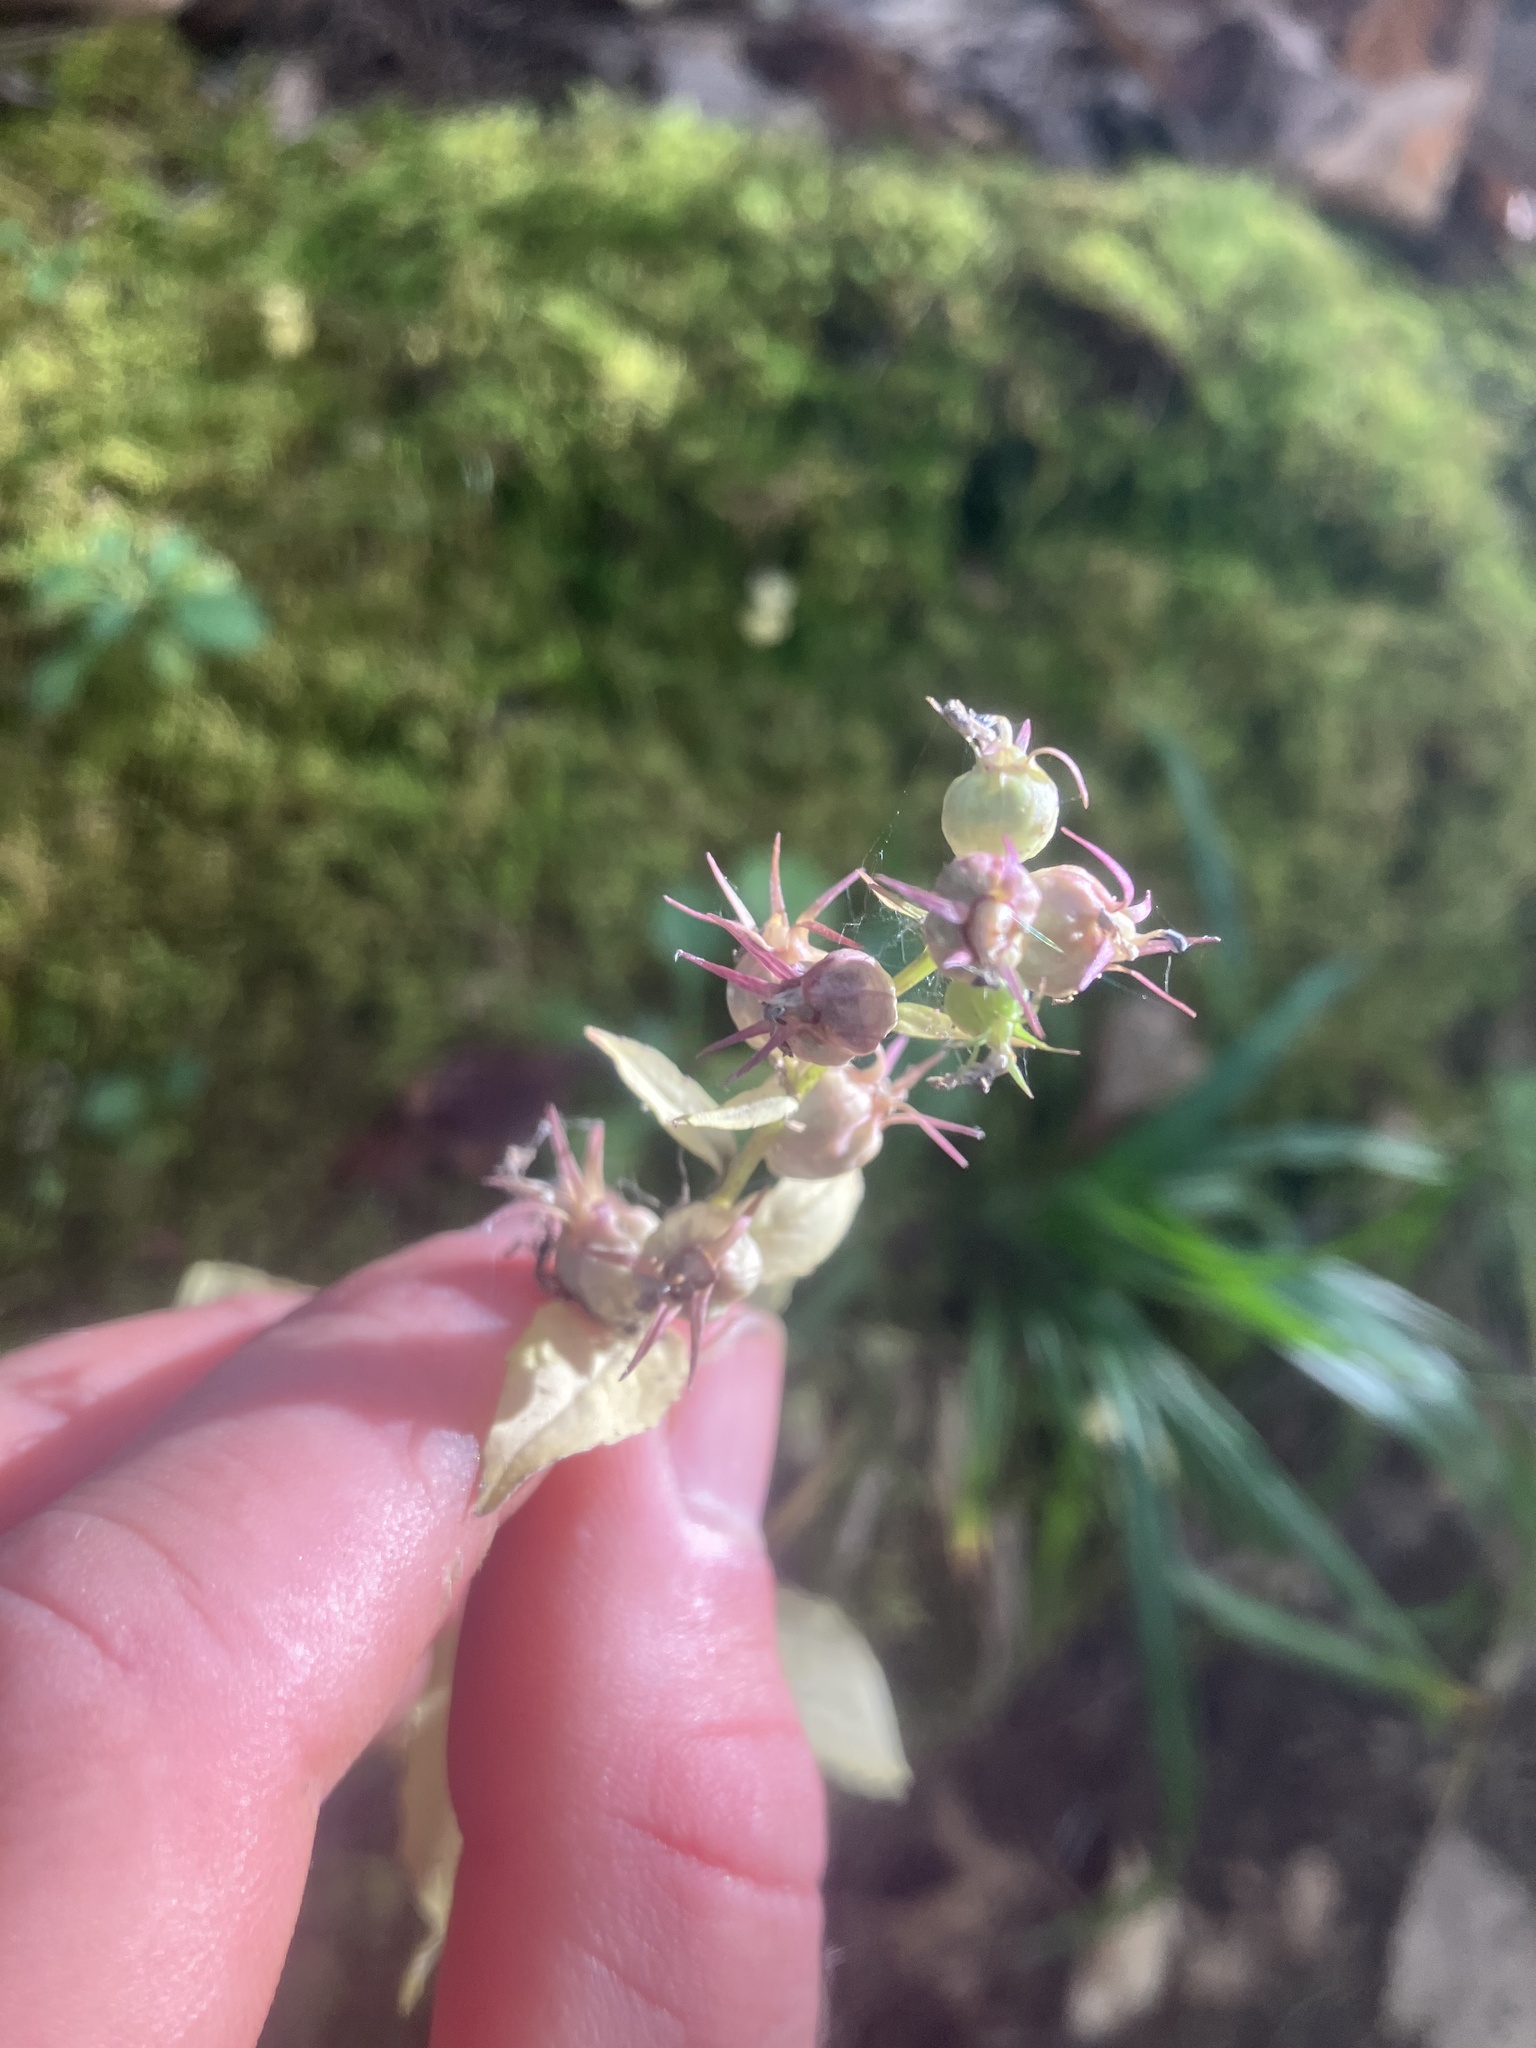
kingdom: Plantae
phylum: Tracheophyta
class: Magnoliopsida
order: Asterales
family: Campanulaceae
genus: Lobelia
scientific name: Lobelia inflata
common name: Indian tobacco
